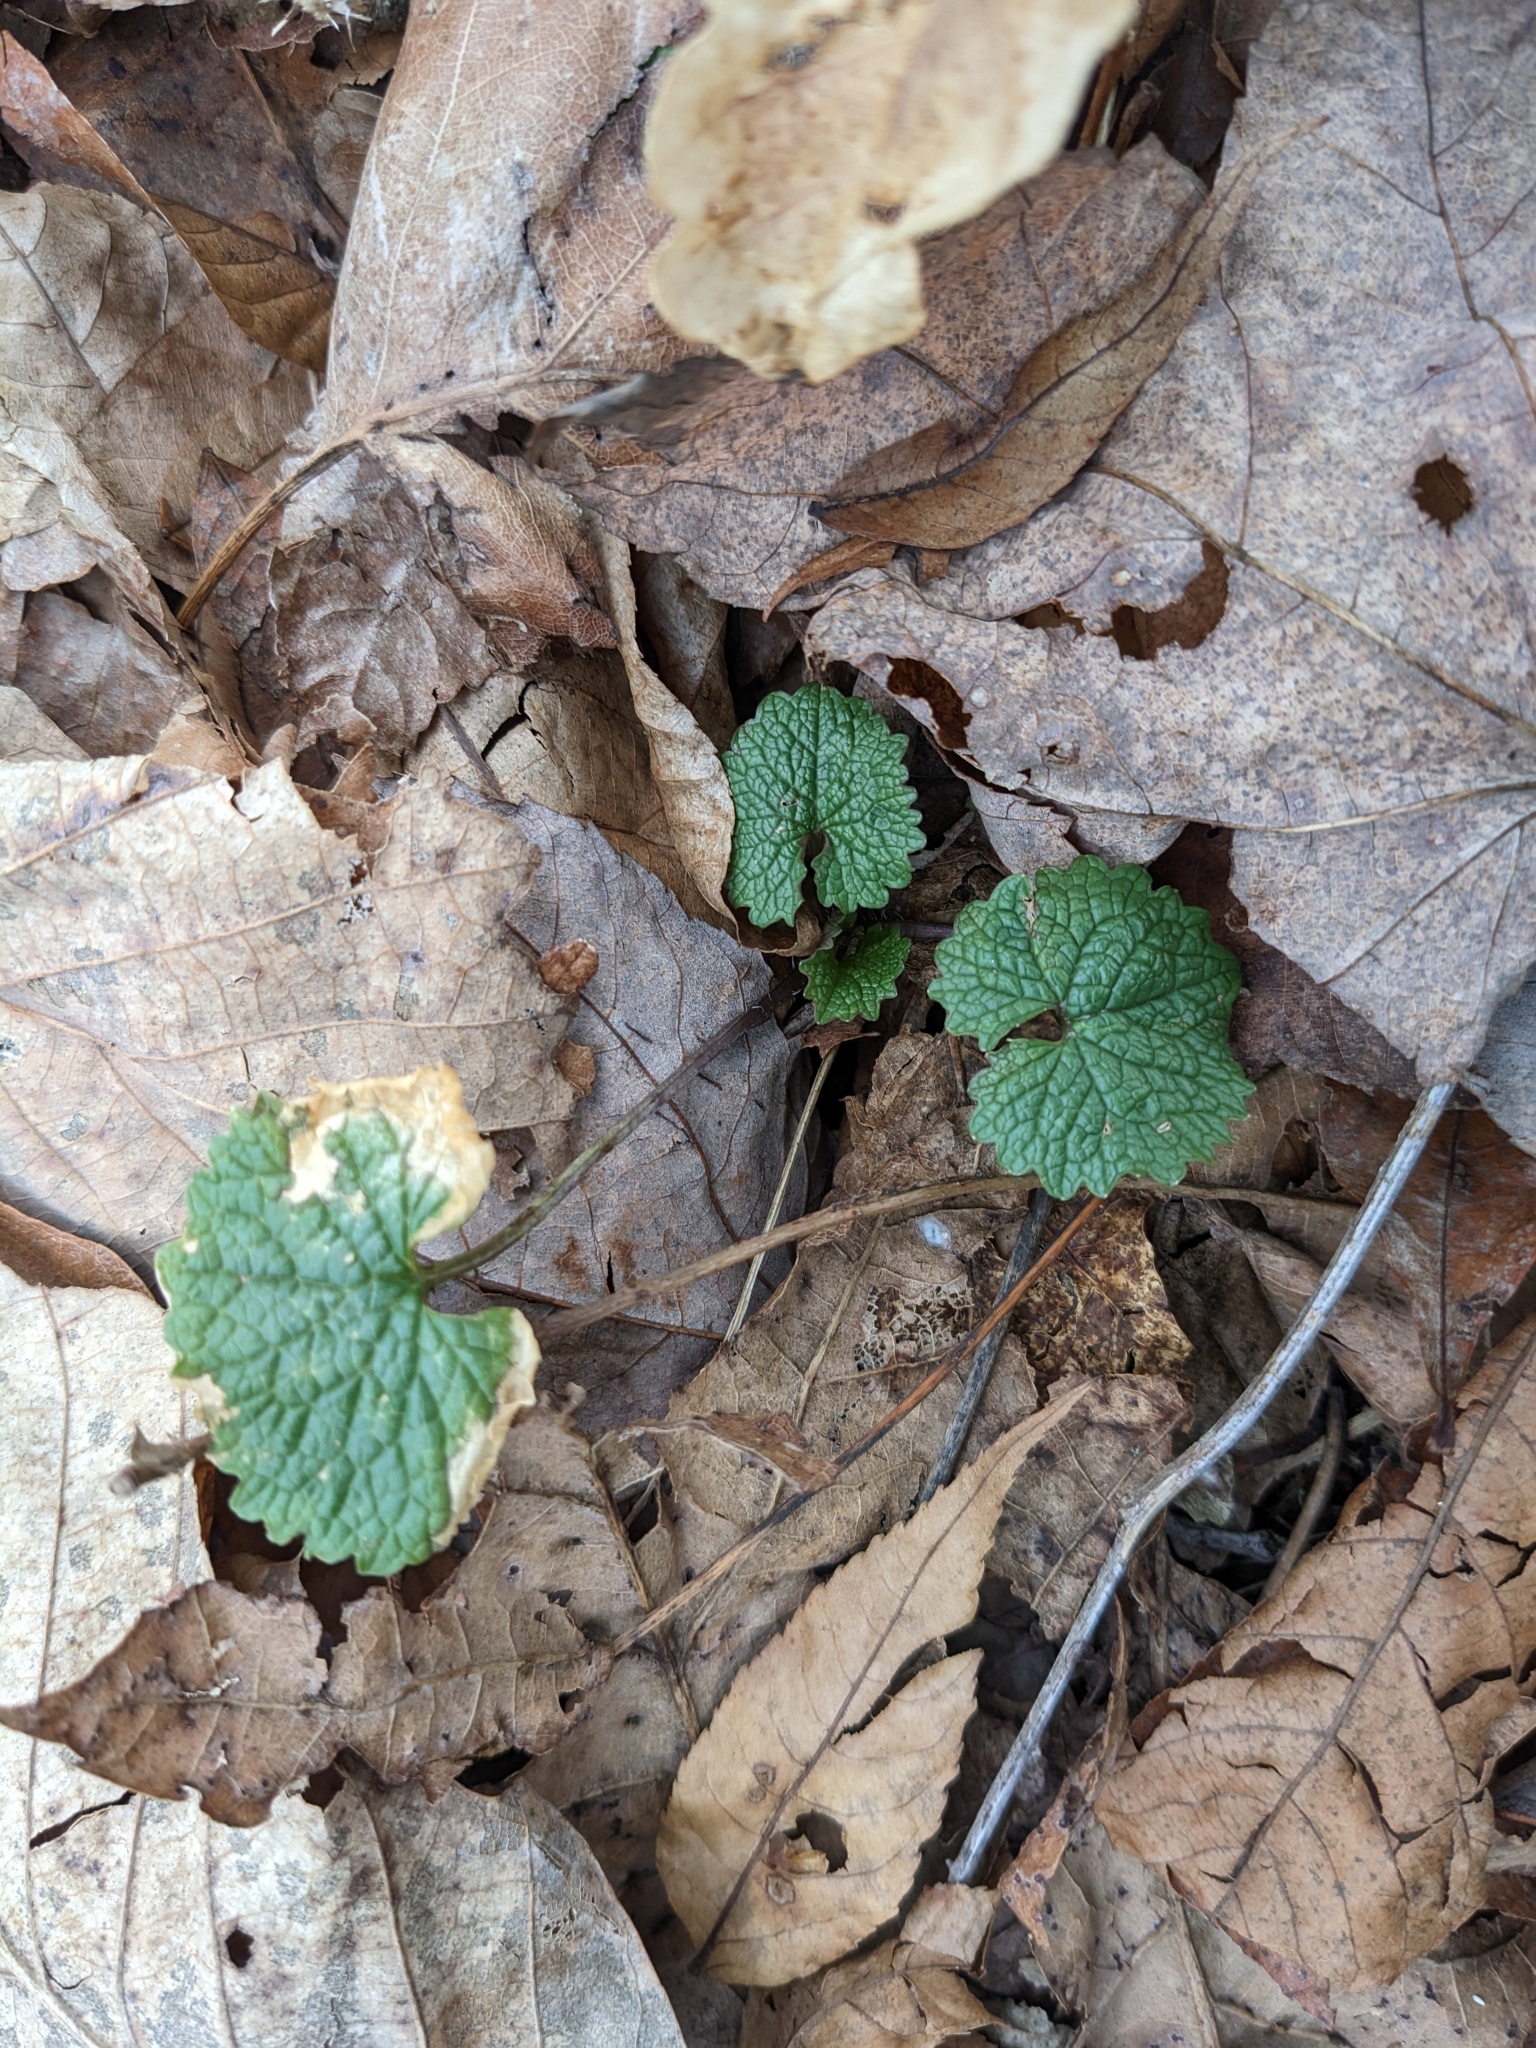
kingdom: Plantae
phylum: Tracheophyta
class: Magnoliopsida
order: Brassicales
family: Brassicaceae
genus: Alliaria
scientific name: Alliaria petiolata
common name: Garlic mustard
